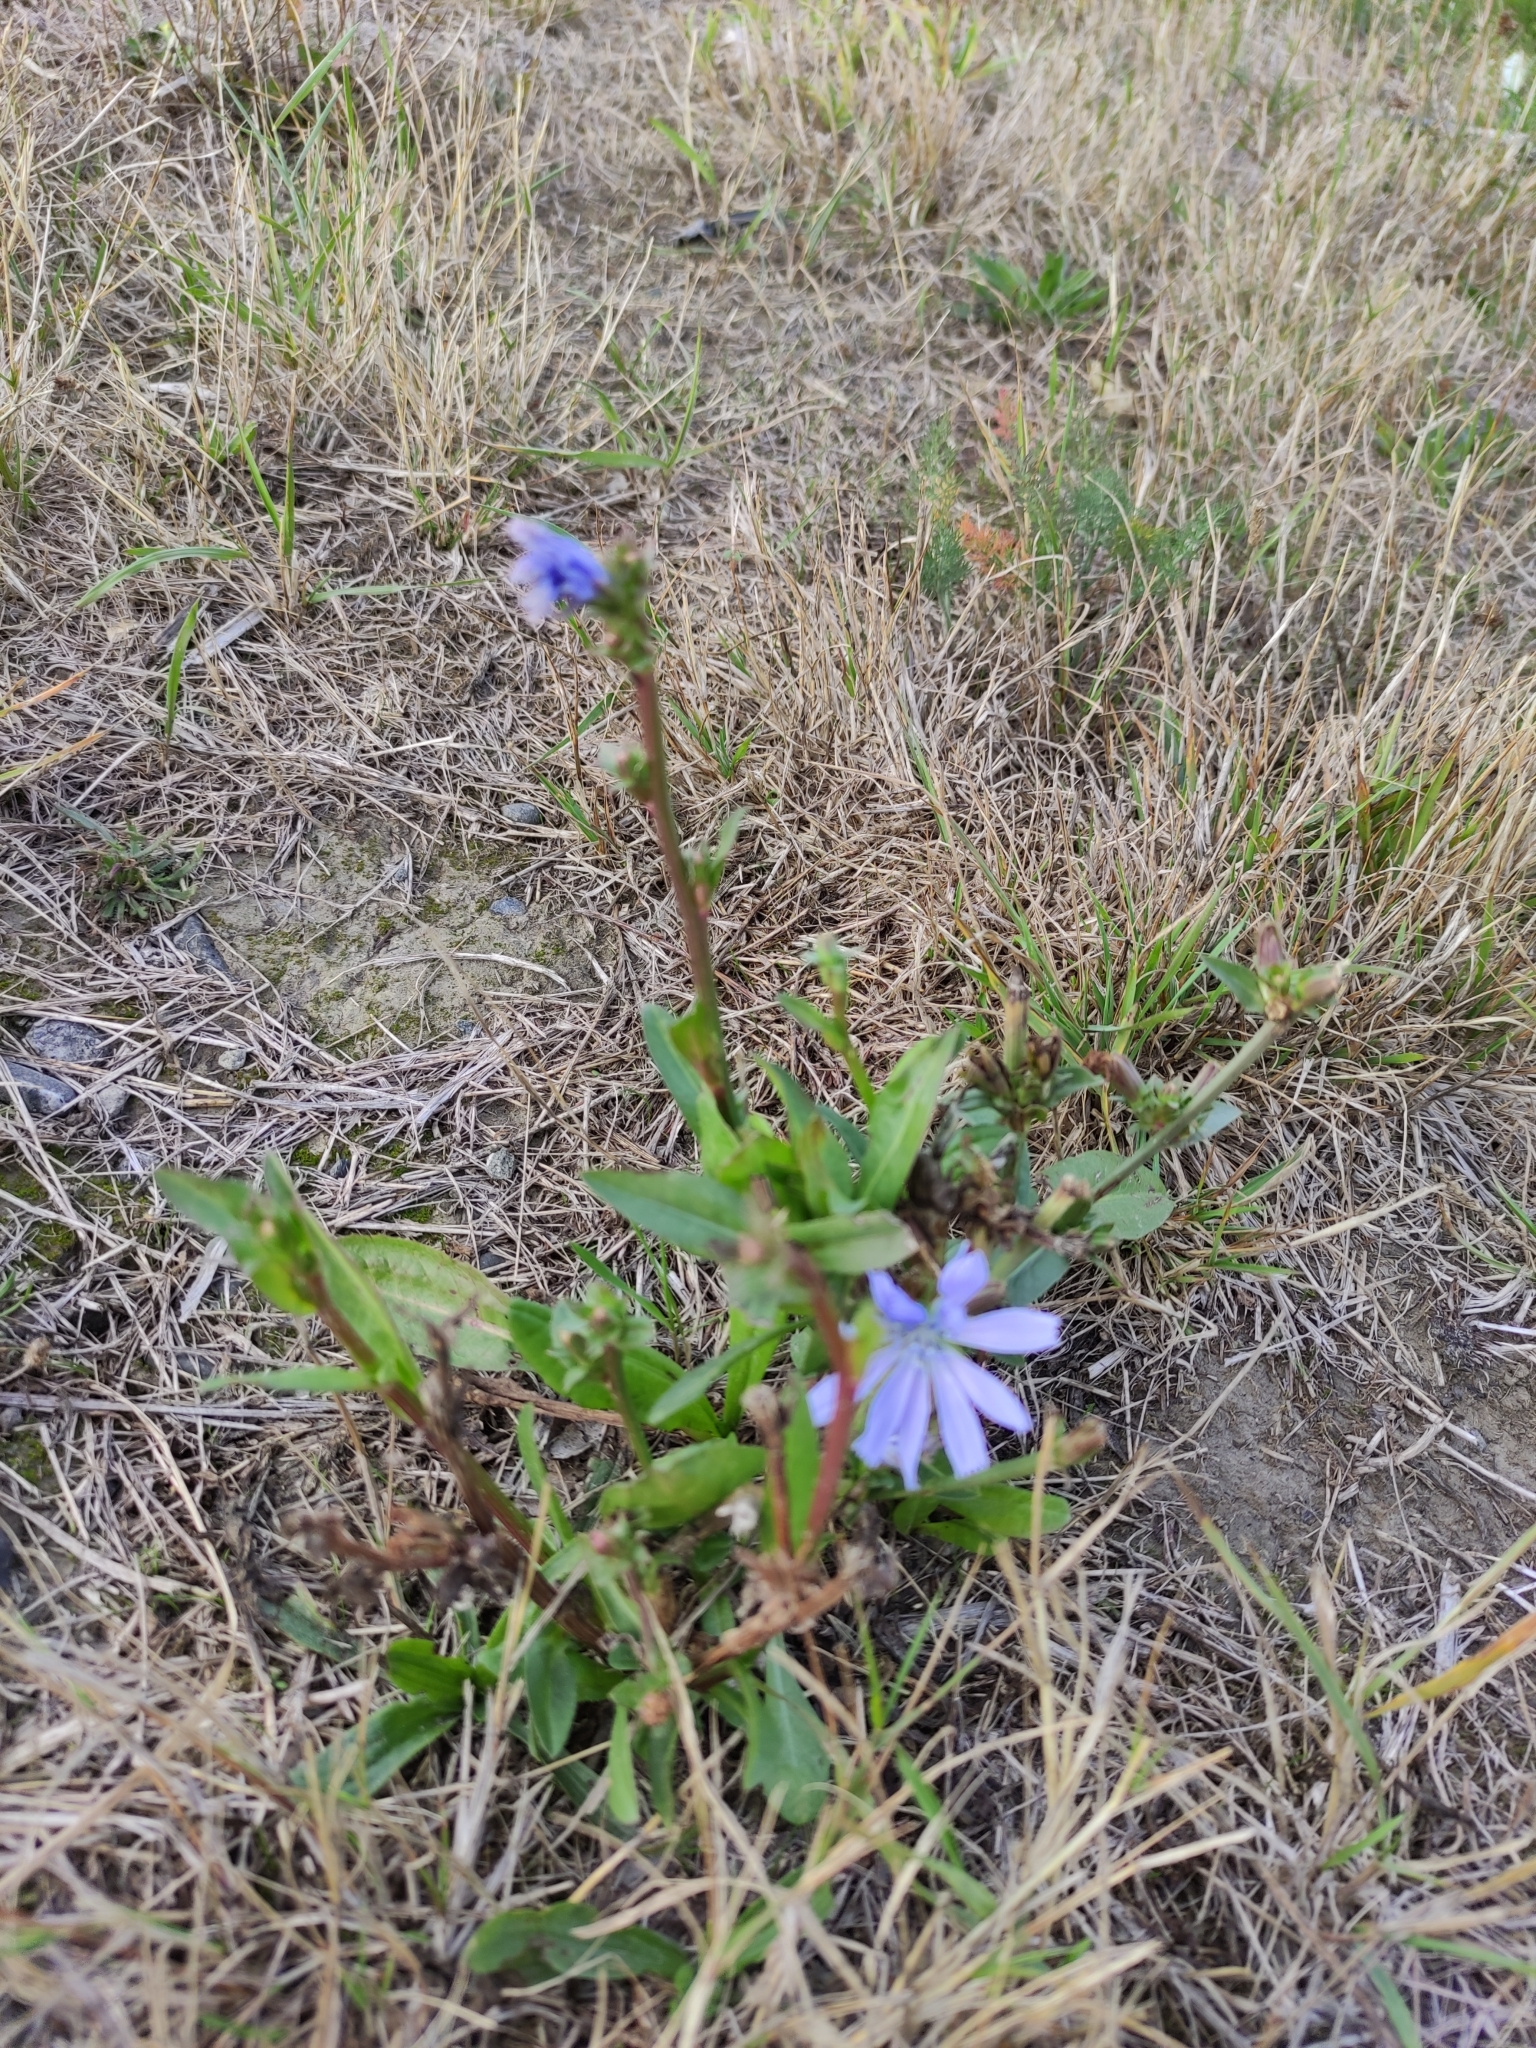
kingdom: Plantae
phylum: Tracheophyta
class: Magnoliopsida
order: Asterales
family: Asteraceae
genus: Cichorium
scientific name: Cichorium intybus
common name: Chicory
